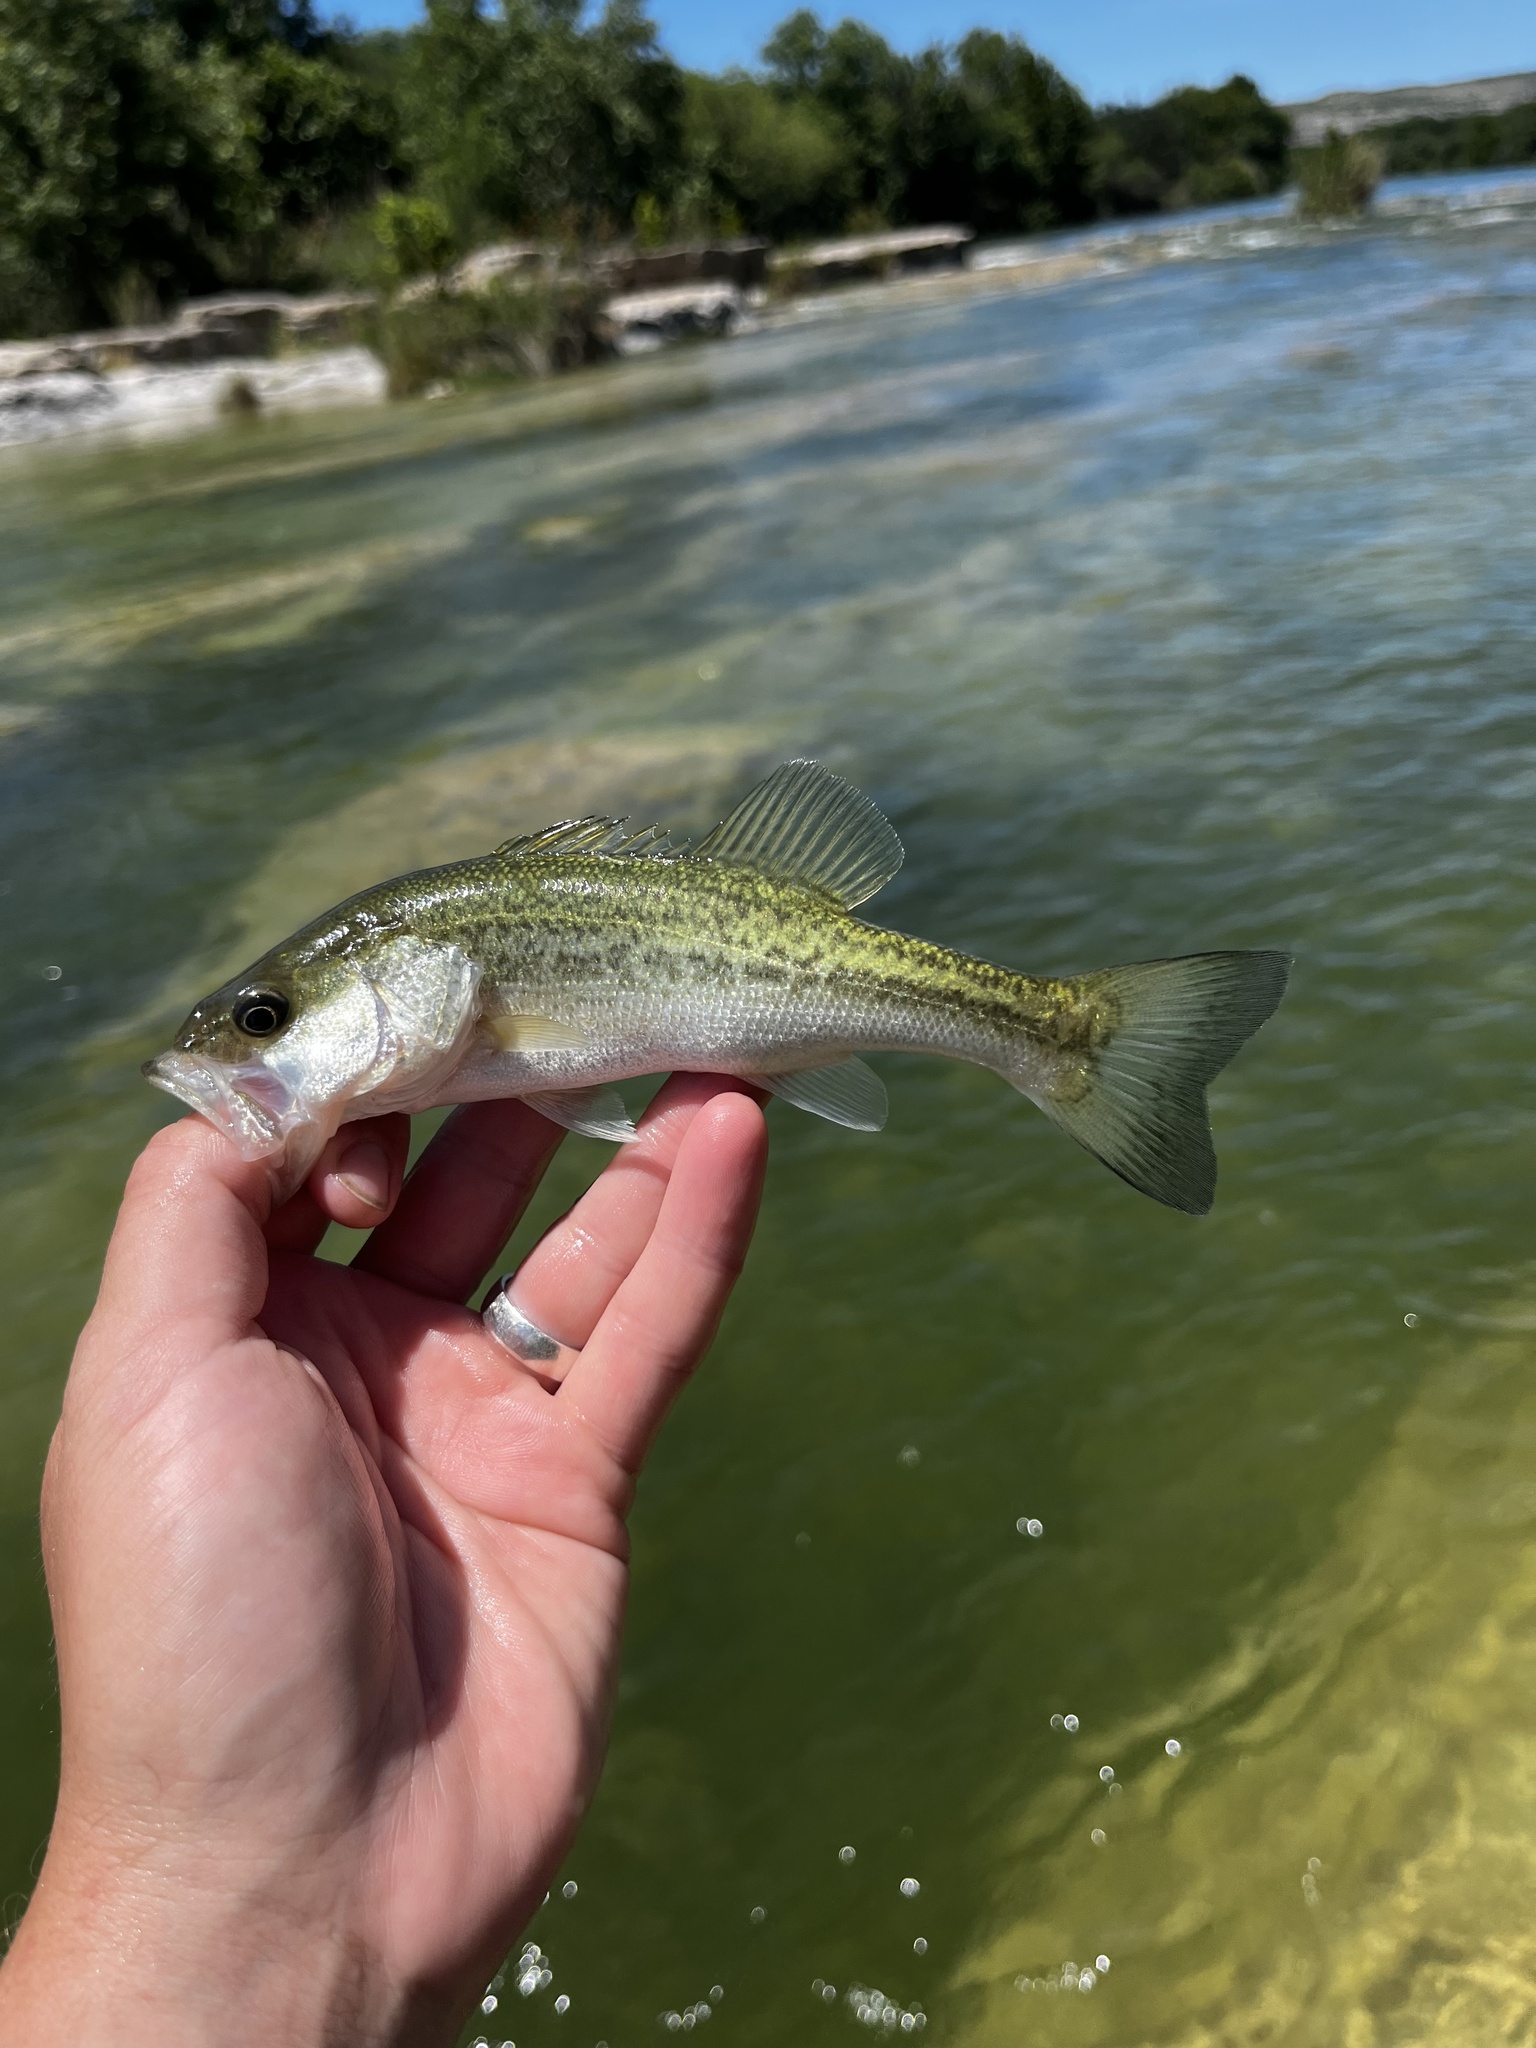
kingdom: Animalia
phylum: Chordata
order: Perciformes
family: Centrarchidae
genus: Micropterus
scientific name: Micropterus
